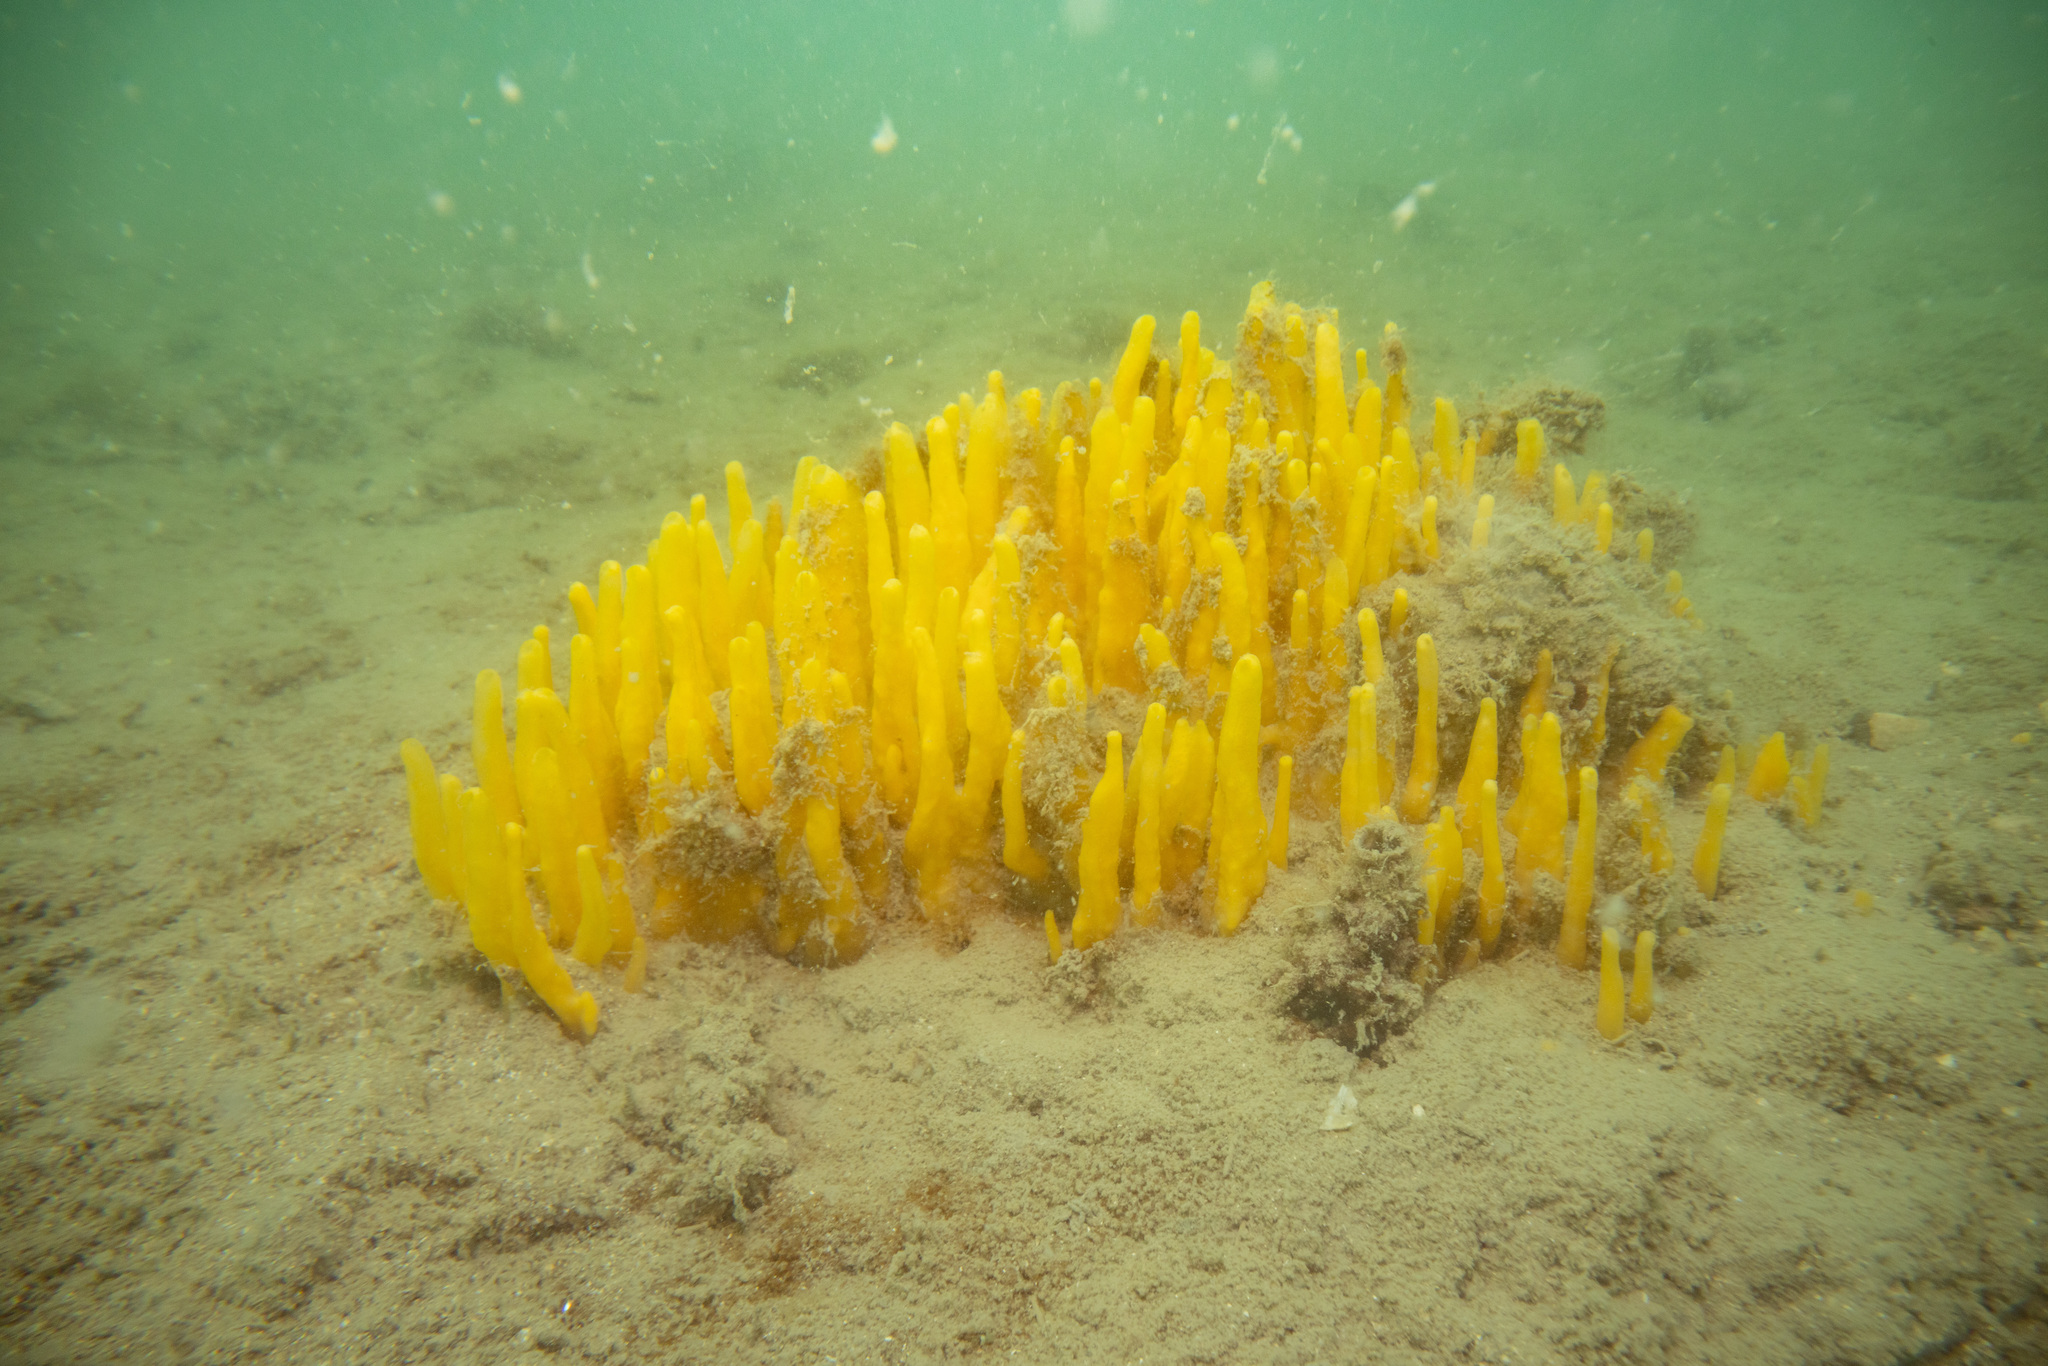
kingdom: Animalia
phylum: Porifera
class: Demospongiae
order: Suberitida
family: Halichondriidae
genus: Ciocalypta
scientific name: Ciocalypta polymastia
